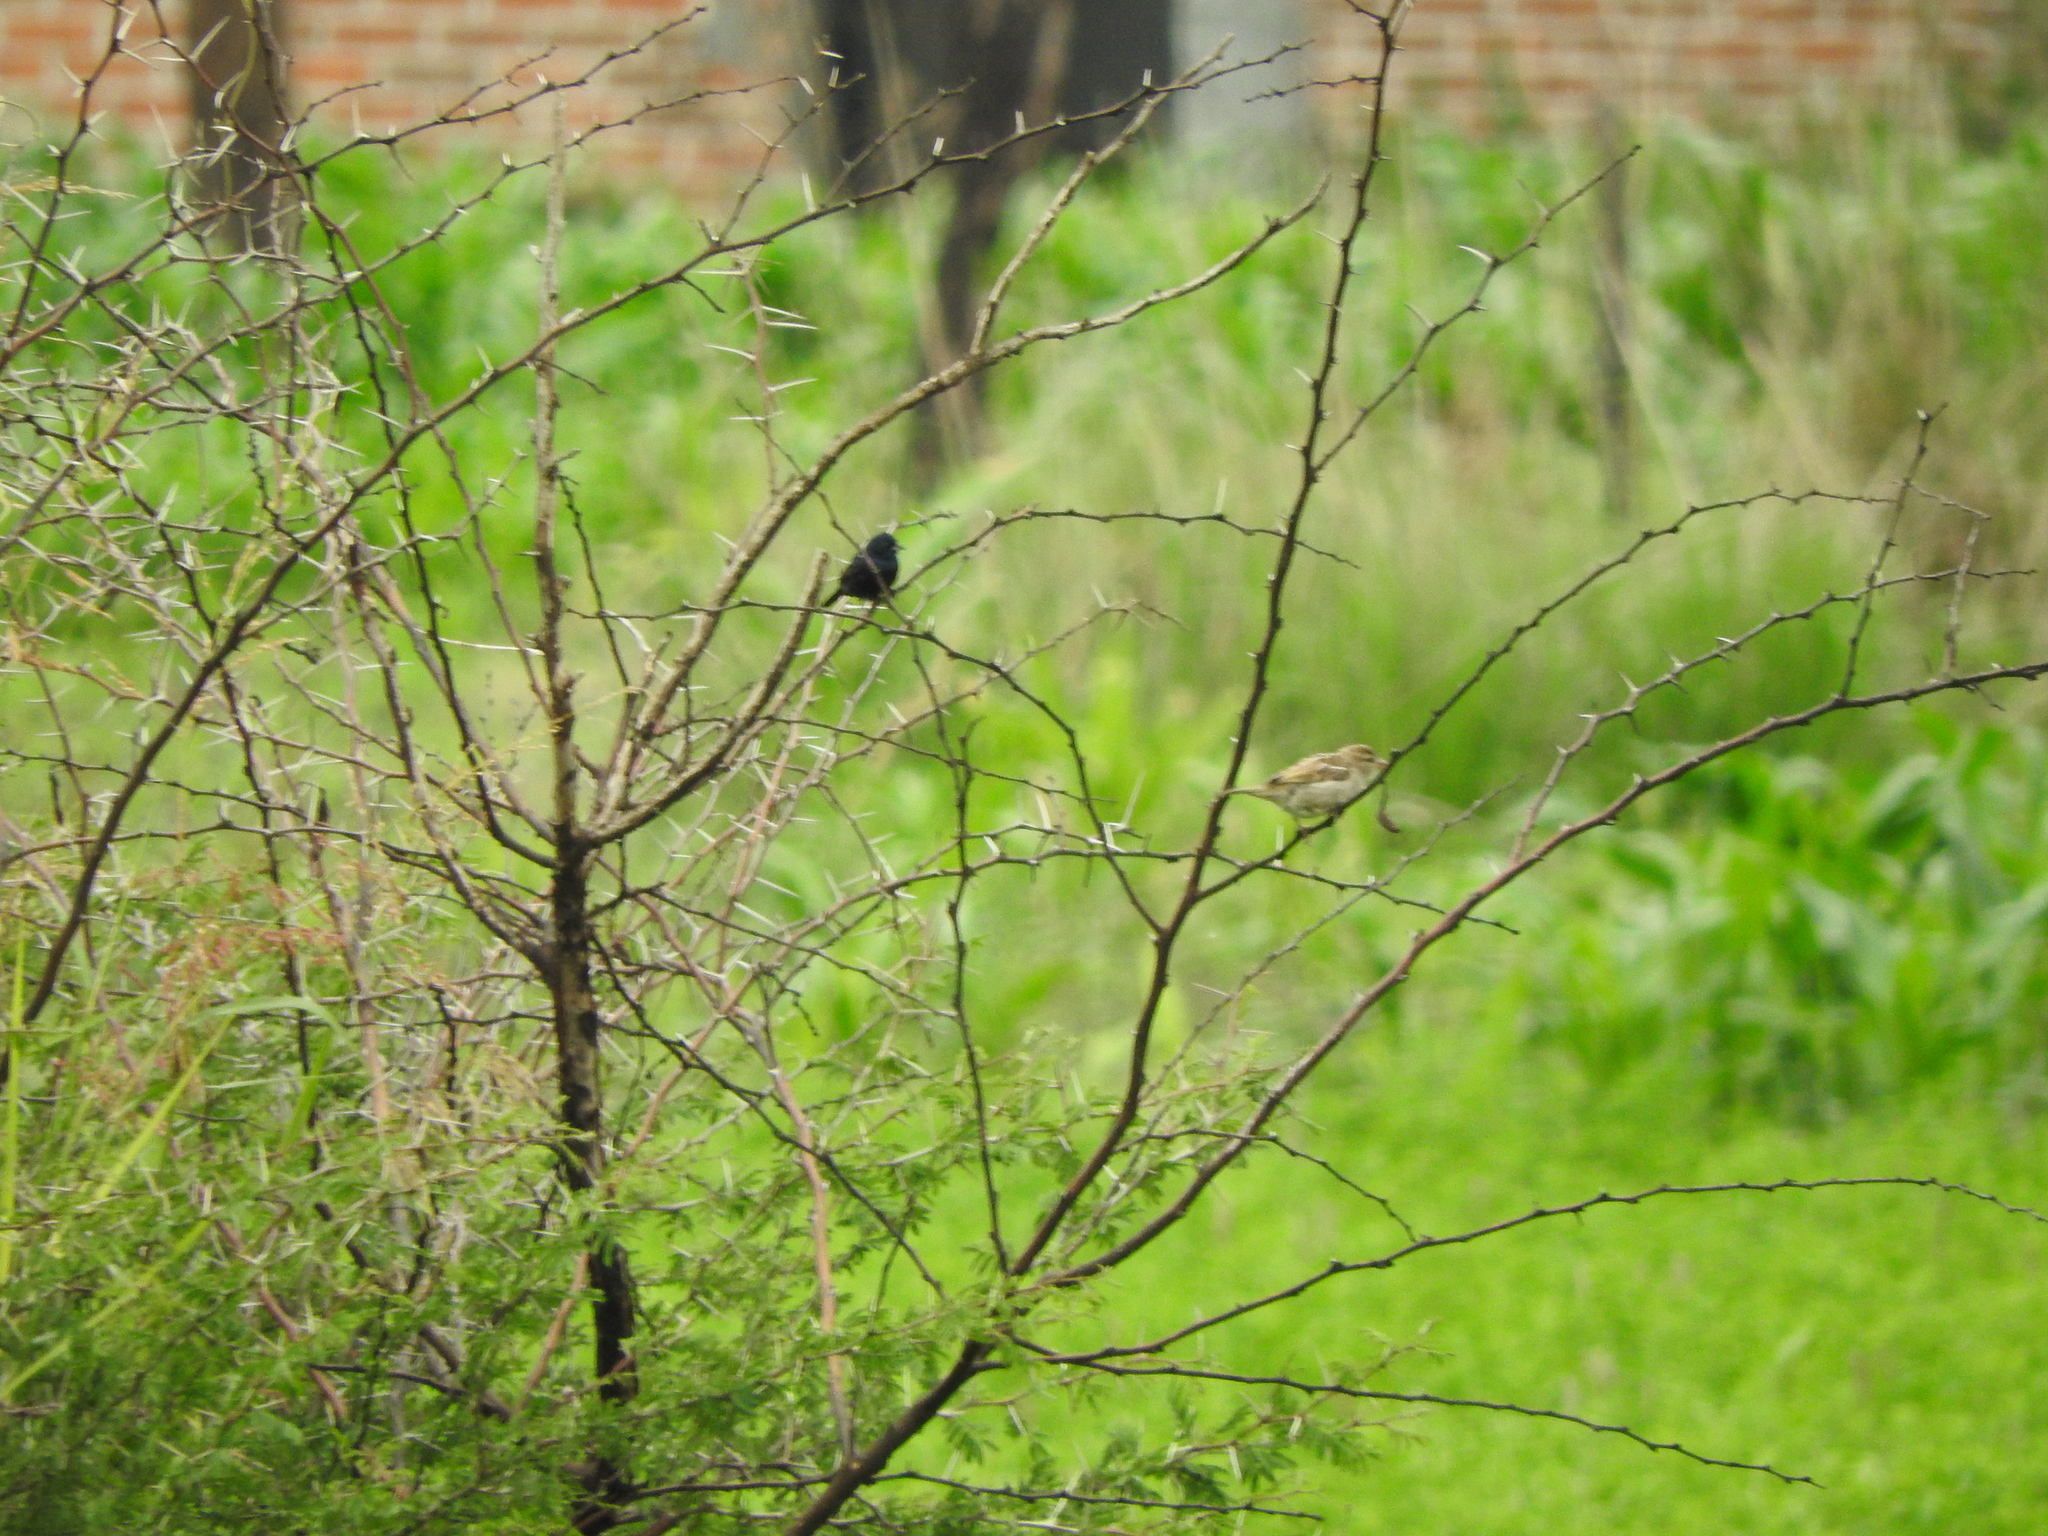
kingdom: Animalia
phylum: Chordata
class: Aves
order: Passeriformes
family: Thraupidae
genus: Volatinia
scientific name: Volatinia jacarina
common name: Blue-black grassquit
